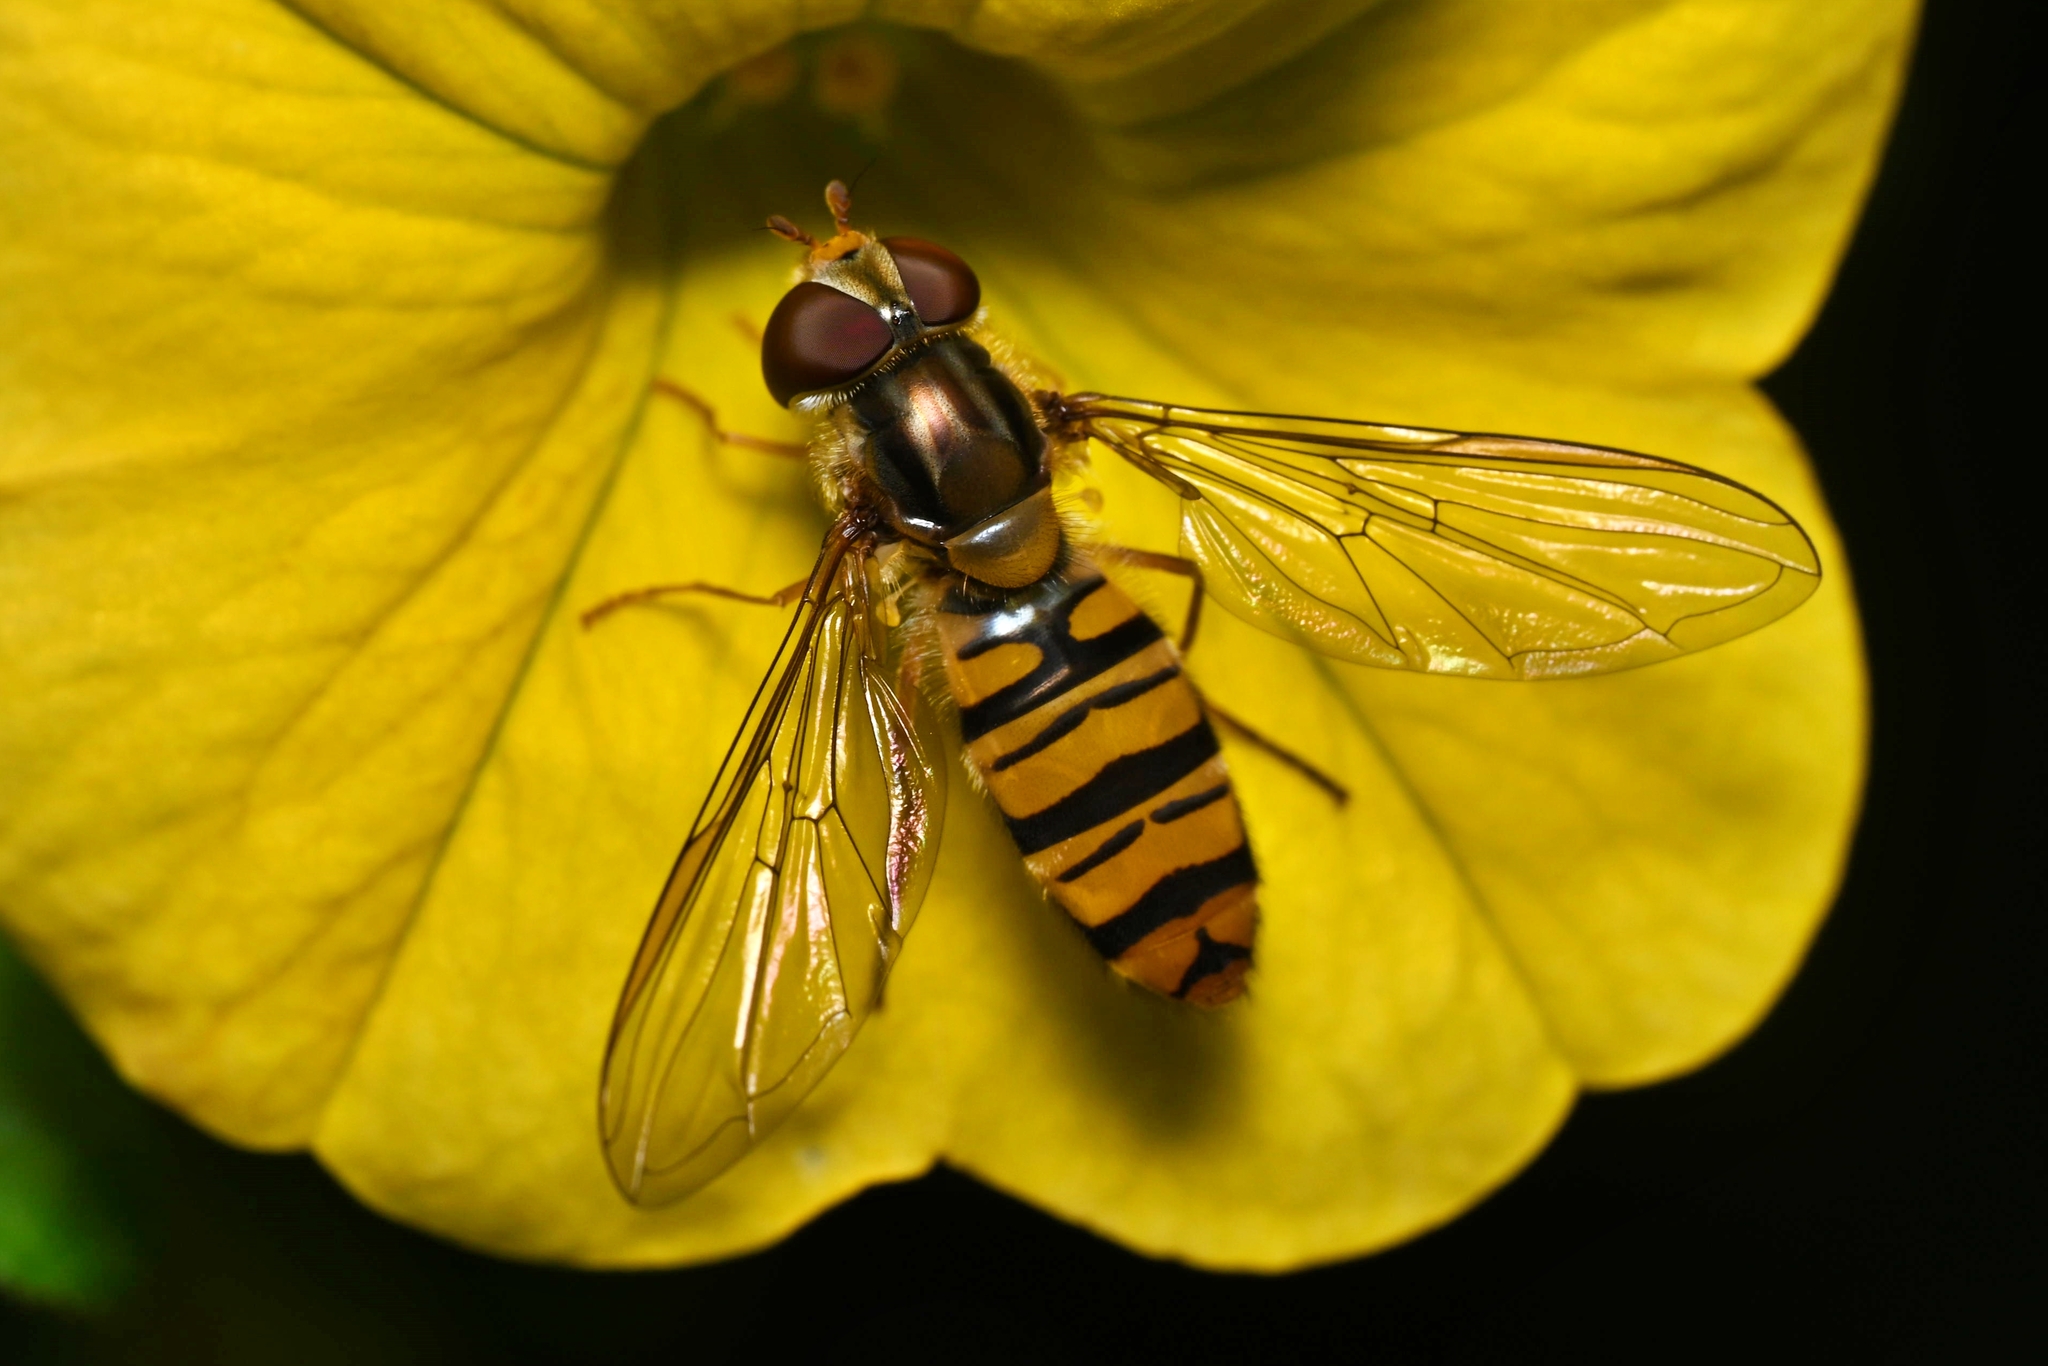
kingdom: Animalia
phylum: Arthropoda
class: Insecta
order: Diptera
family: Syrphidae
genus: Episyrphus
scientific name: Episyrphus balteatus
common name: Marmalade hoverfly
